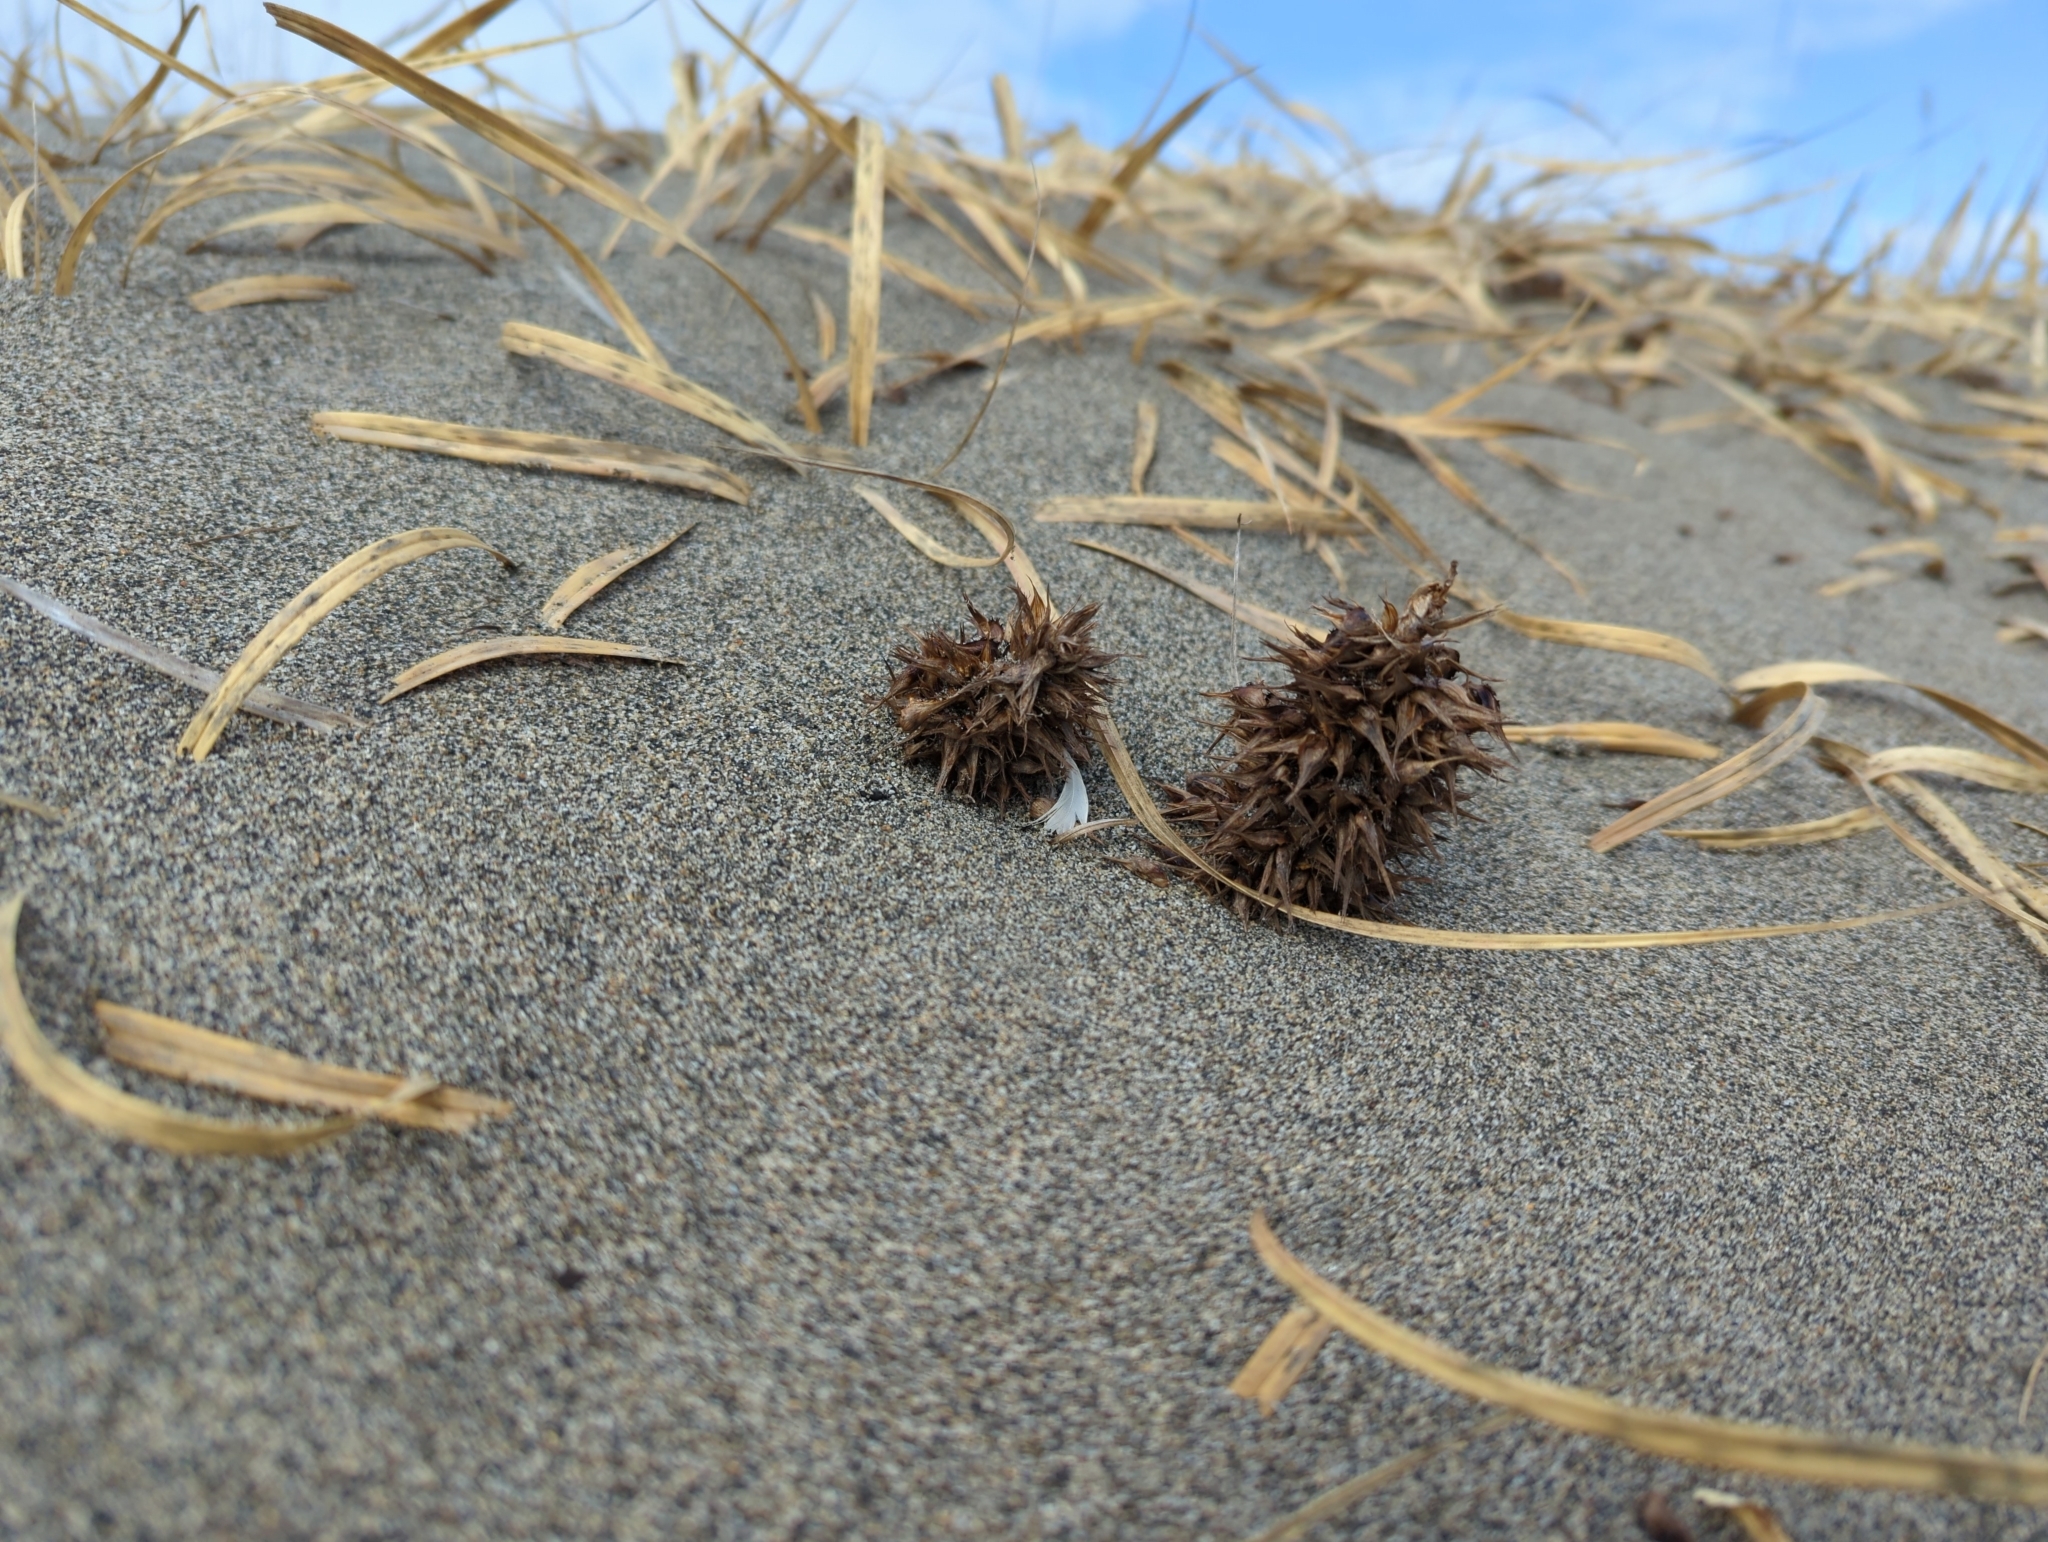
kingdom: Plantae
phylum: Tracheophyta
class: Liliopsida
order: Poales
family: Cyperaceae
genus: Carex
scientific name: Carex macrocephala
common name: Large-head sedge
